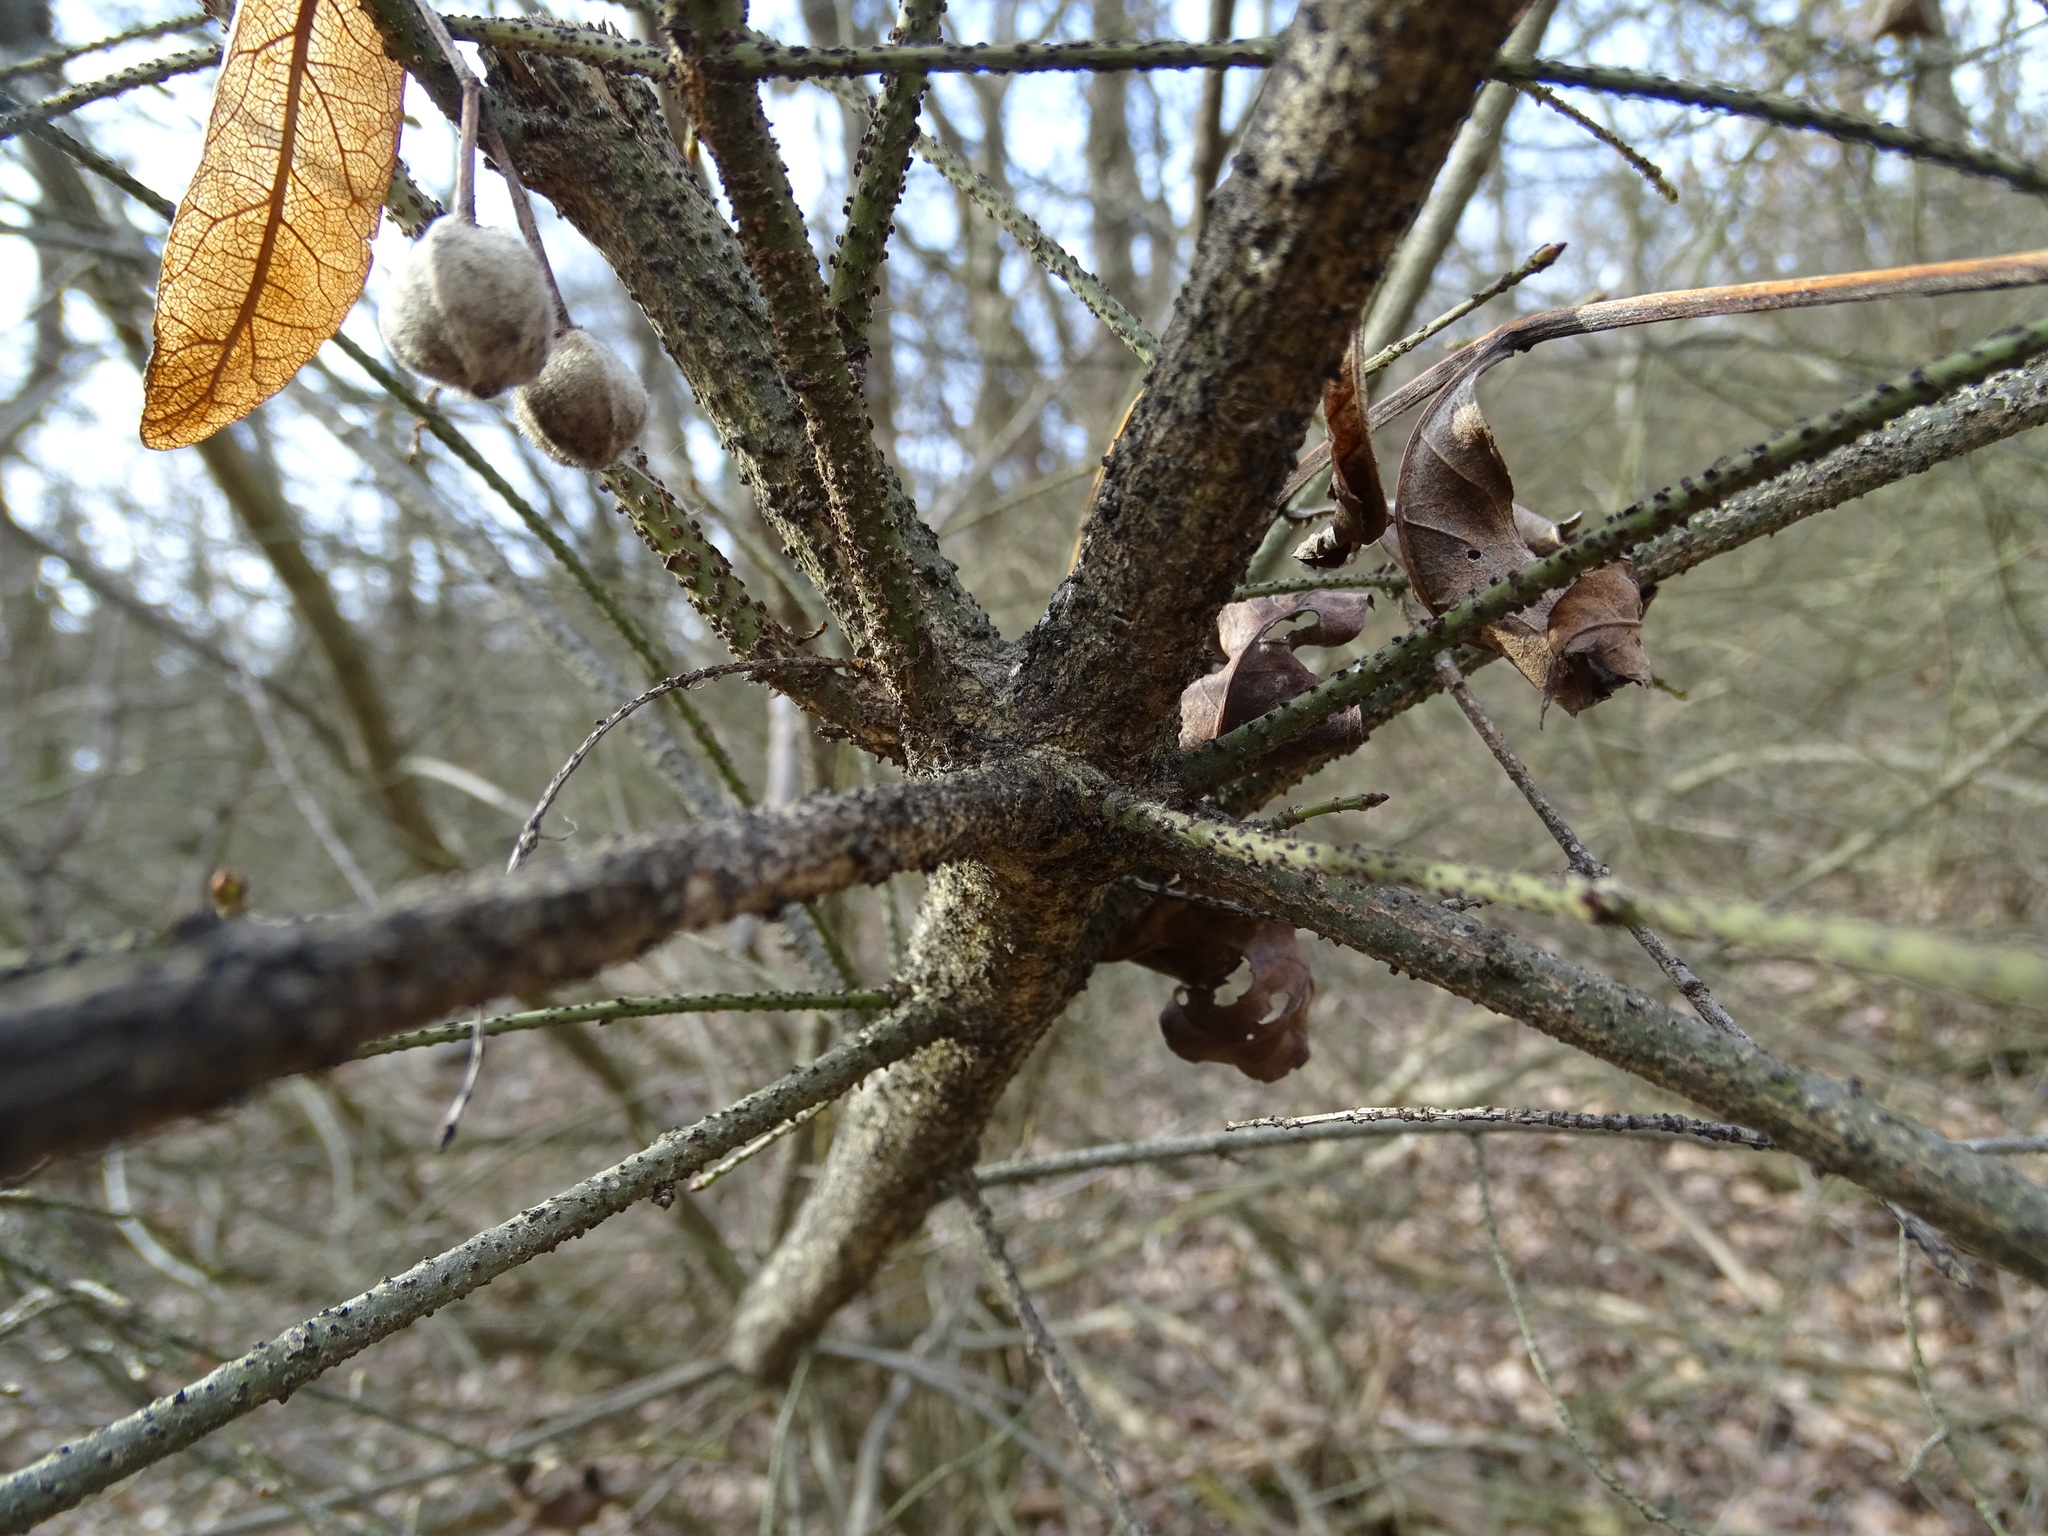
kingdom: Plantae
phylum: Tracheophyta
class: Magnoliopsida
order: Celastrales
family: Celastraceae
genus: Euonymus
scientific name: Euonymus verrucosus
